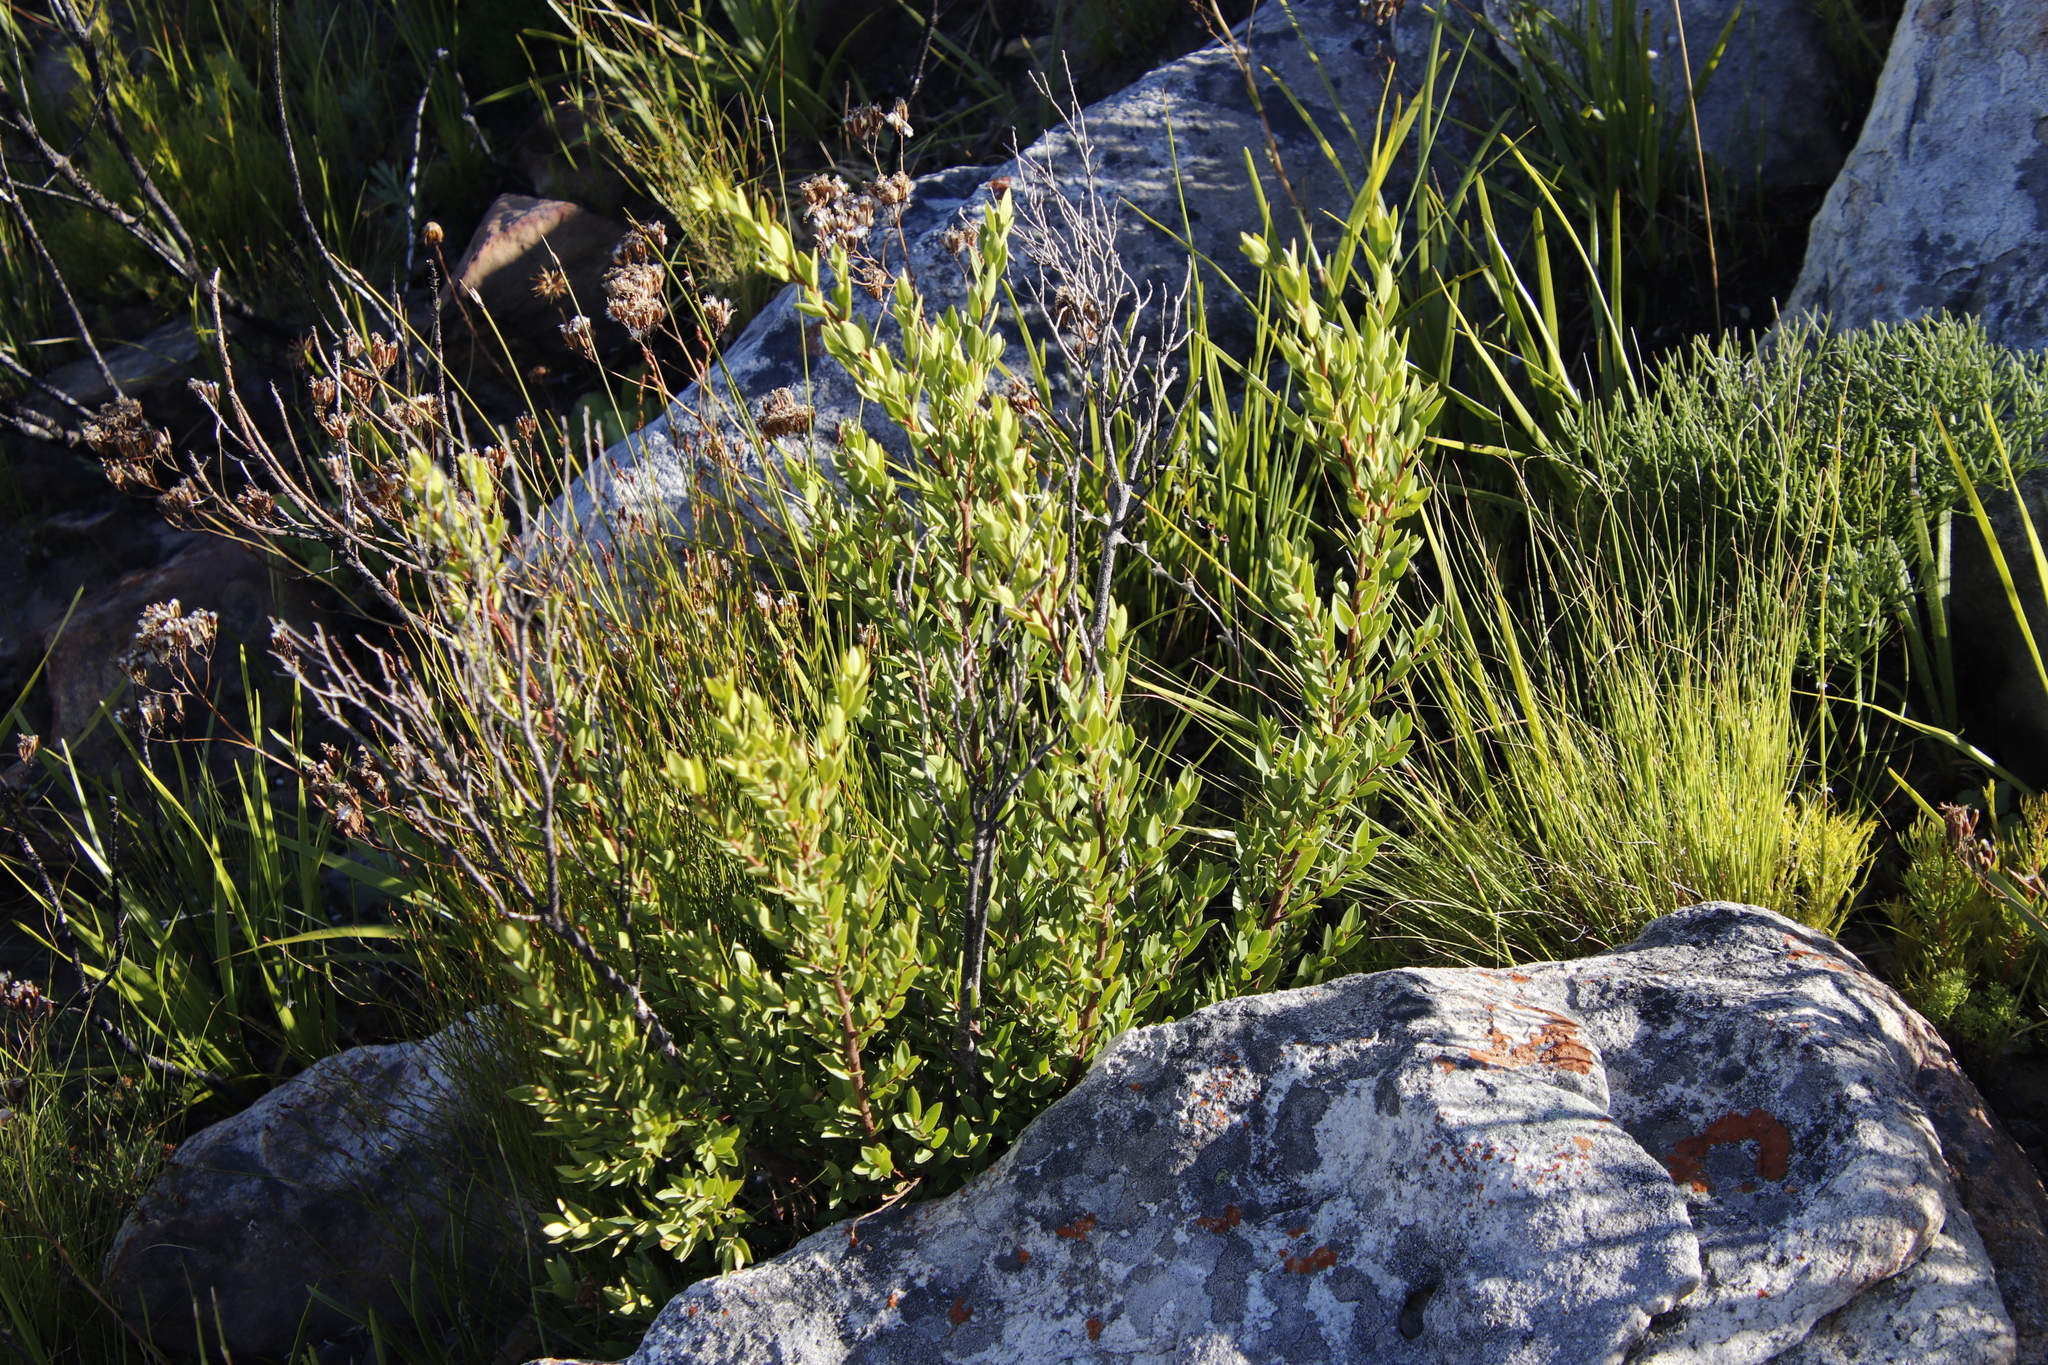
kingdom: Plantae
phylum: Tracheophyta
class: Magnoliopsida
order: Ericales
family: Ebenaceae
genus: Diospyros
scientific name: Diospyros glabra
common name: Fynbos star apple
